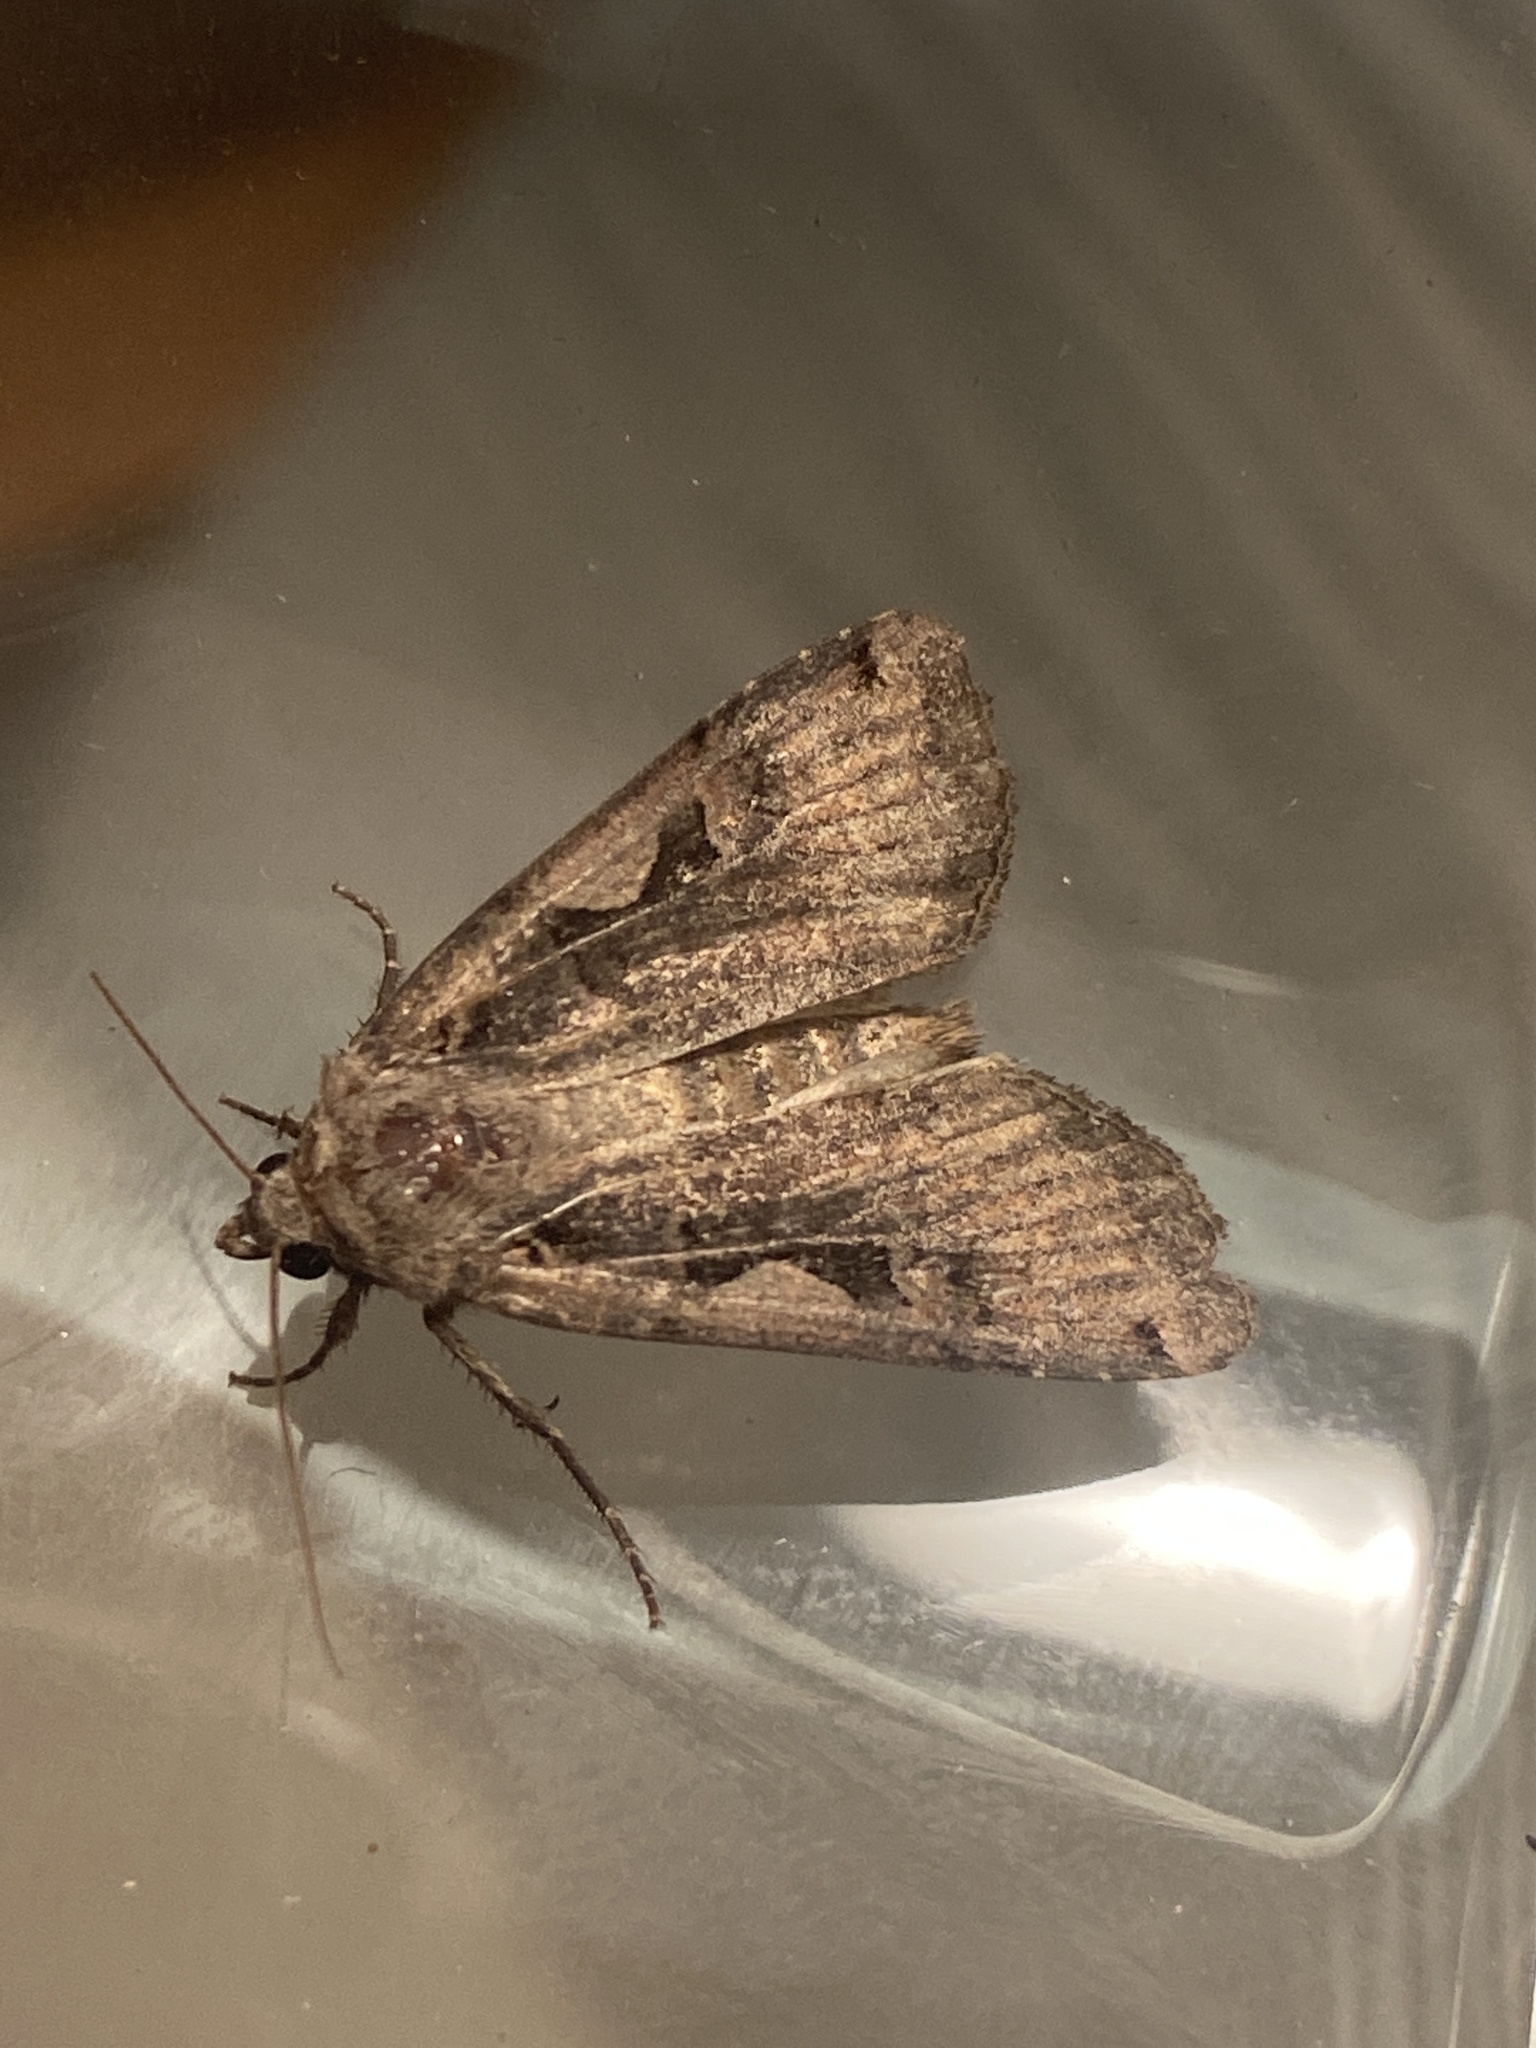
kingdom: Animalia
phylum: Arthropoda
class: Insecta
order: Lepidoptera
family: Noctuidae
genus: Xestia
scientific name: Xestia c-nigrum
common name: Setaceous hebrew character
